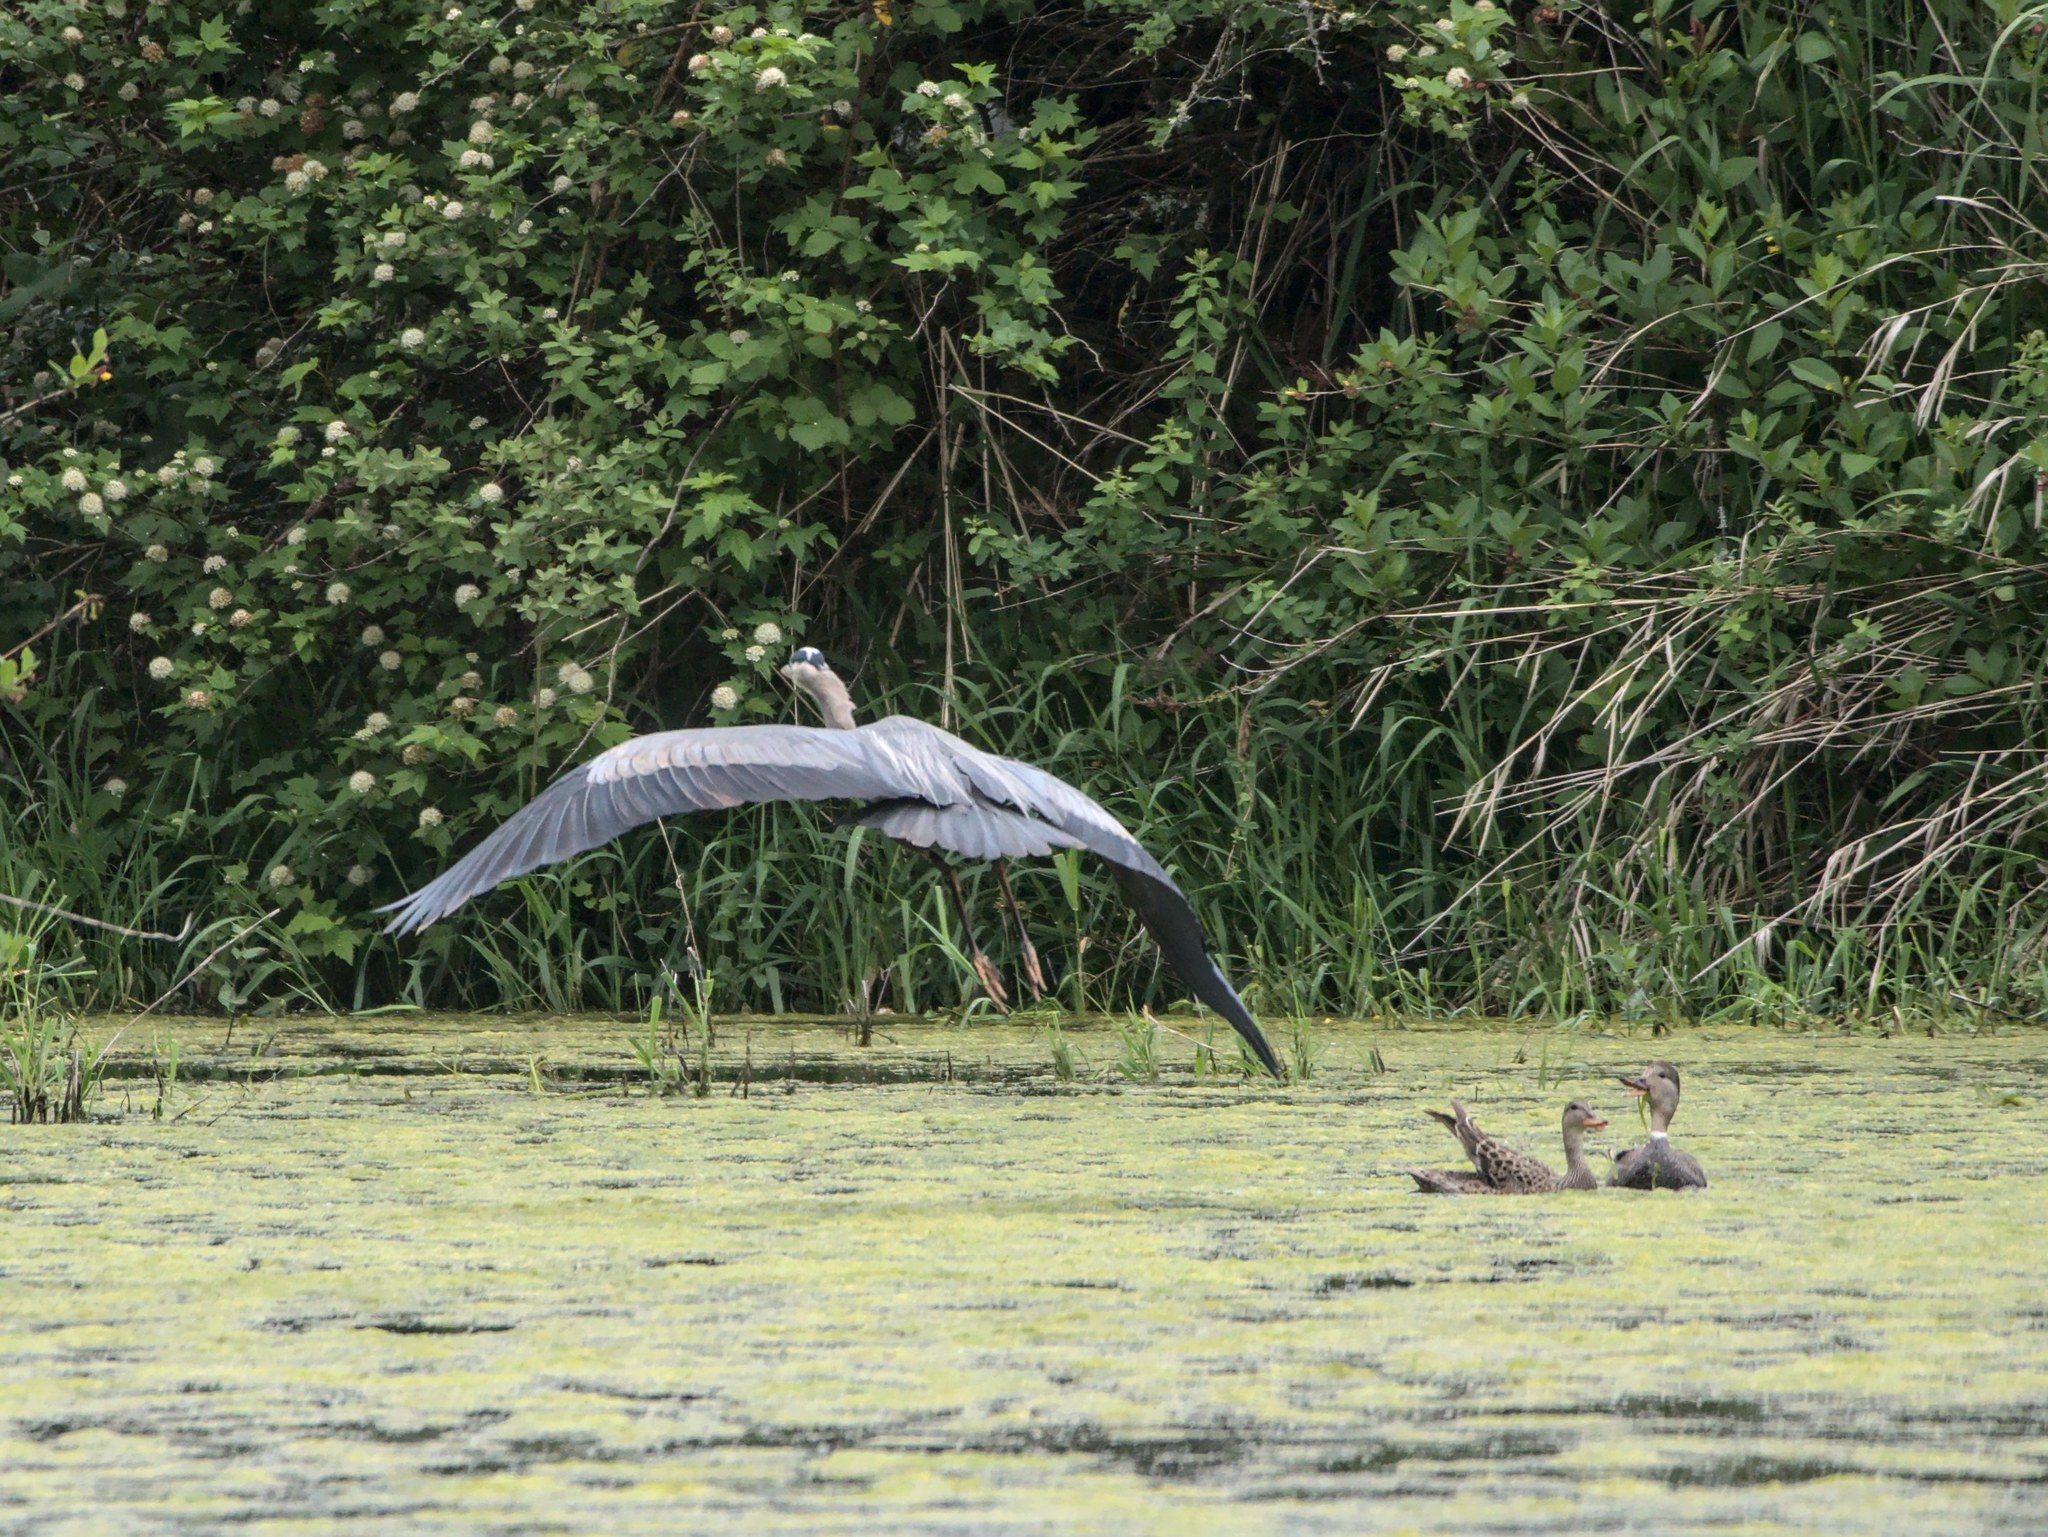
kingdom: Animalia
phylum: Chordata
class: Aves
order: Pelecaniformes
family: Ardeidae
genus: Ardea
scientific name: Ardea herodias
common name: Great blue heron
